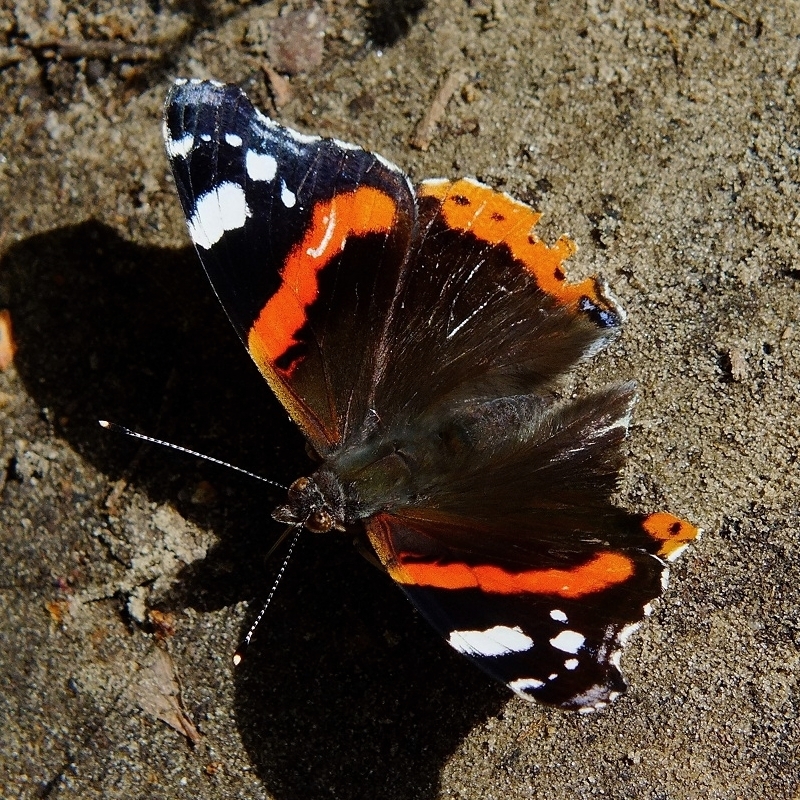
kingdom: Animalia
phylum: Arthropoda
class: Insecta
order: Lepidoptera
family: Nymphalidae
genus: Vanessa
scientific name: Vanessa atalanta
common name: Red admiral
